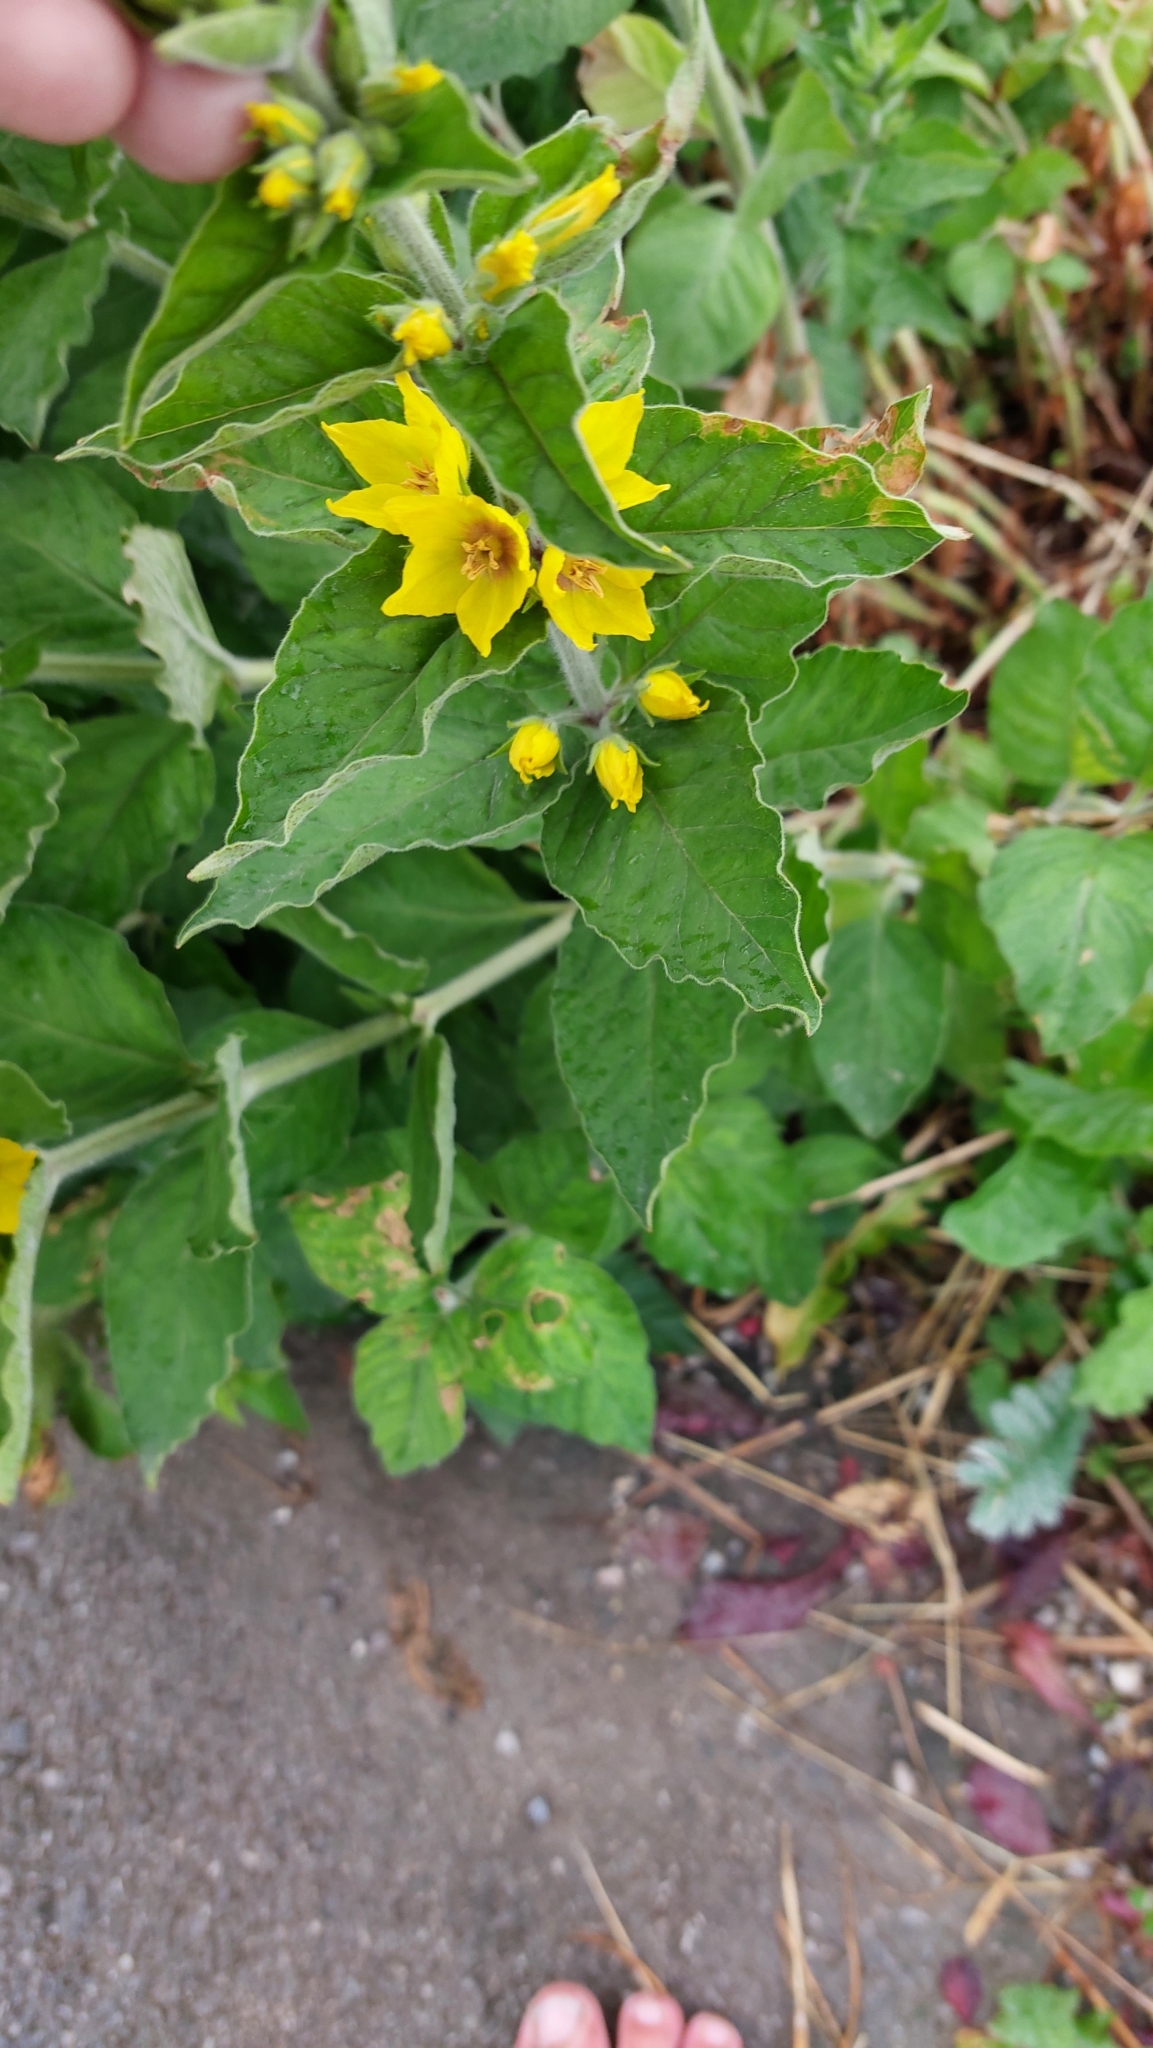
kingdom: Plantae
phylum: Tracheophyta
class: Magnoliopsida
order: Ericales
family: Primulaceae
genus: Lysimachia
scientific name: Lysimachia punctata
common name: Dotted loosestrife
